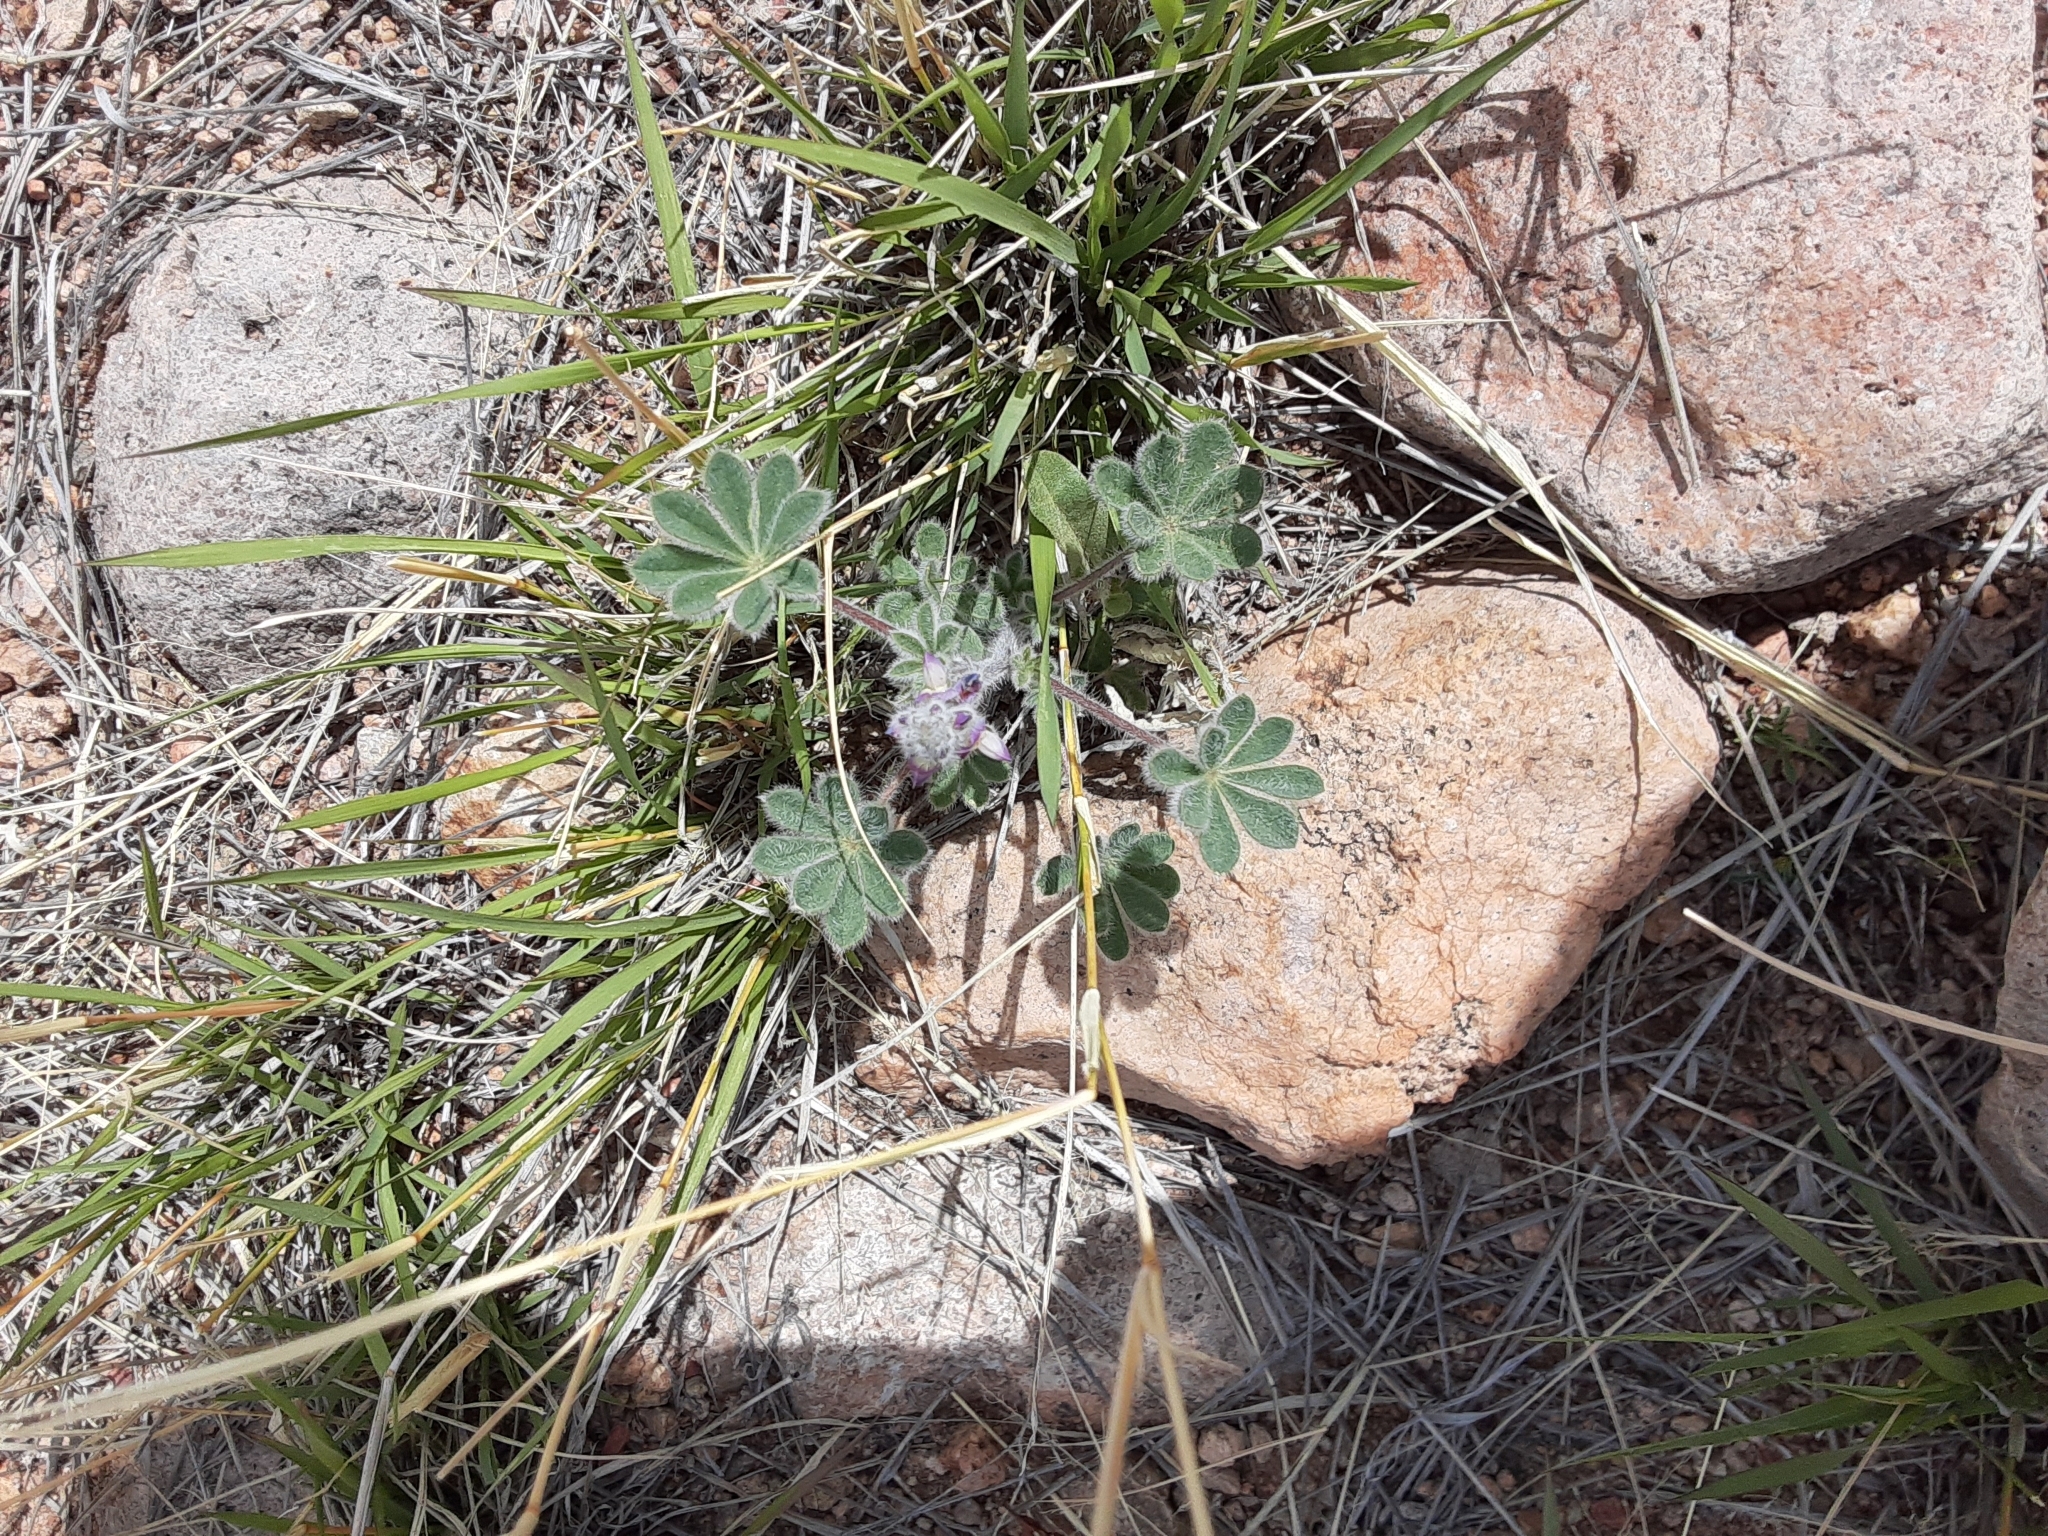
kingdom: Plantae
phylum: Tracheophyta
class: Magnoliopsida
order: Fabales
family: Fabaceae
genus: Lupinus
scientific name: Lupinus concinnus
